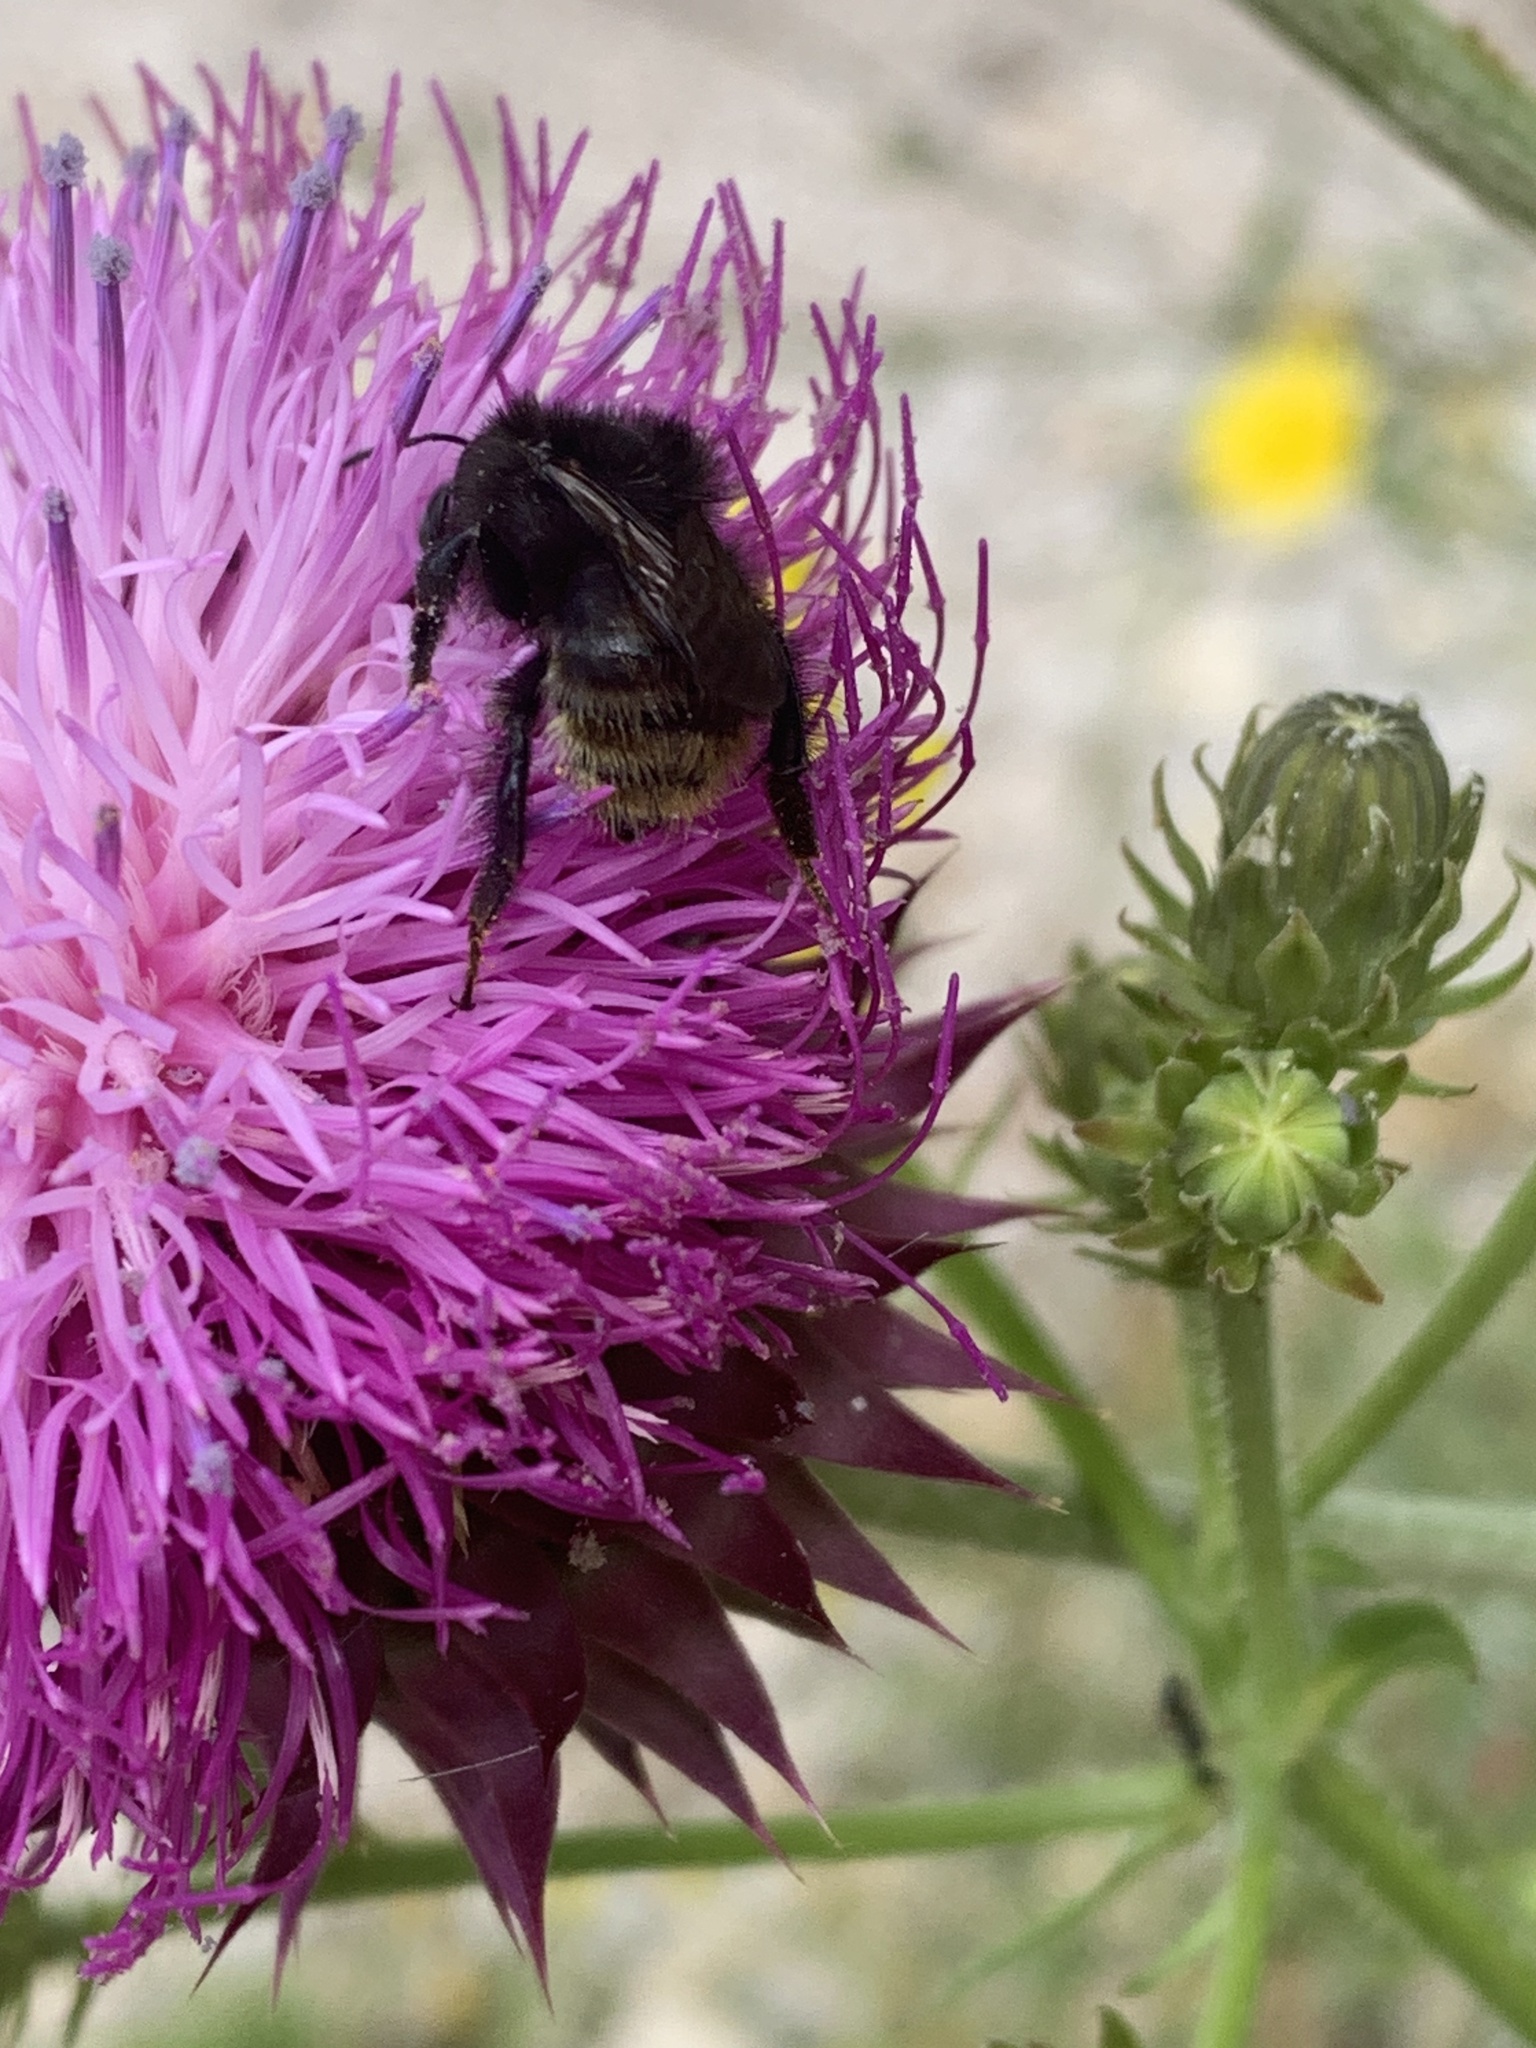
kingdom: Animalia
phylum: Arthropoda
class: Insecta
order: Hymenoptera
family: Apidae
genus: Bombus
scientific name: Bombus humilis
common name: Brown-banded carder-bee
